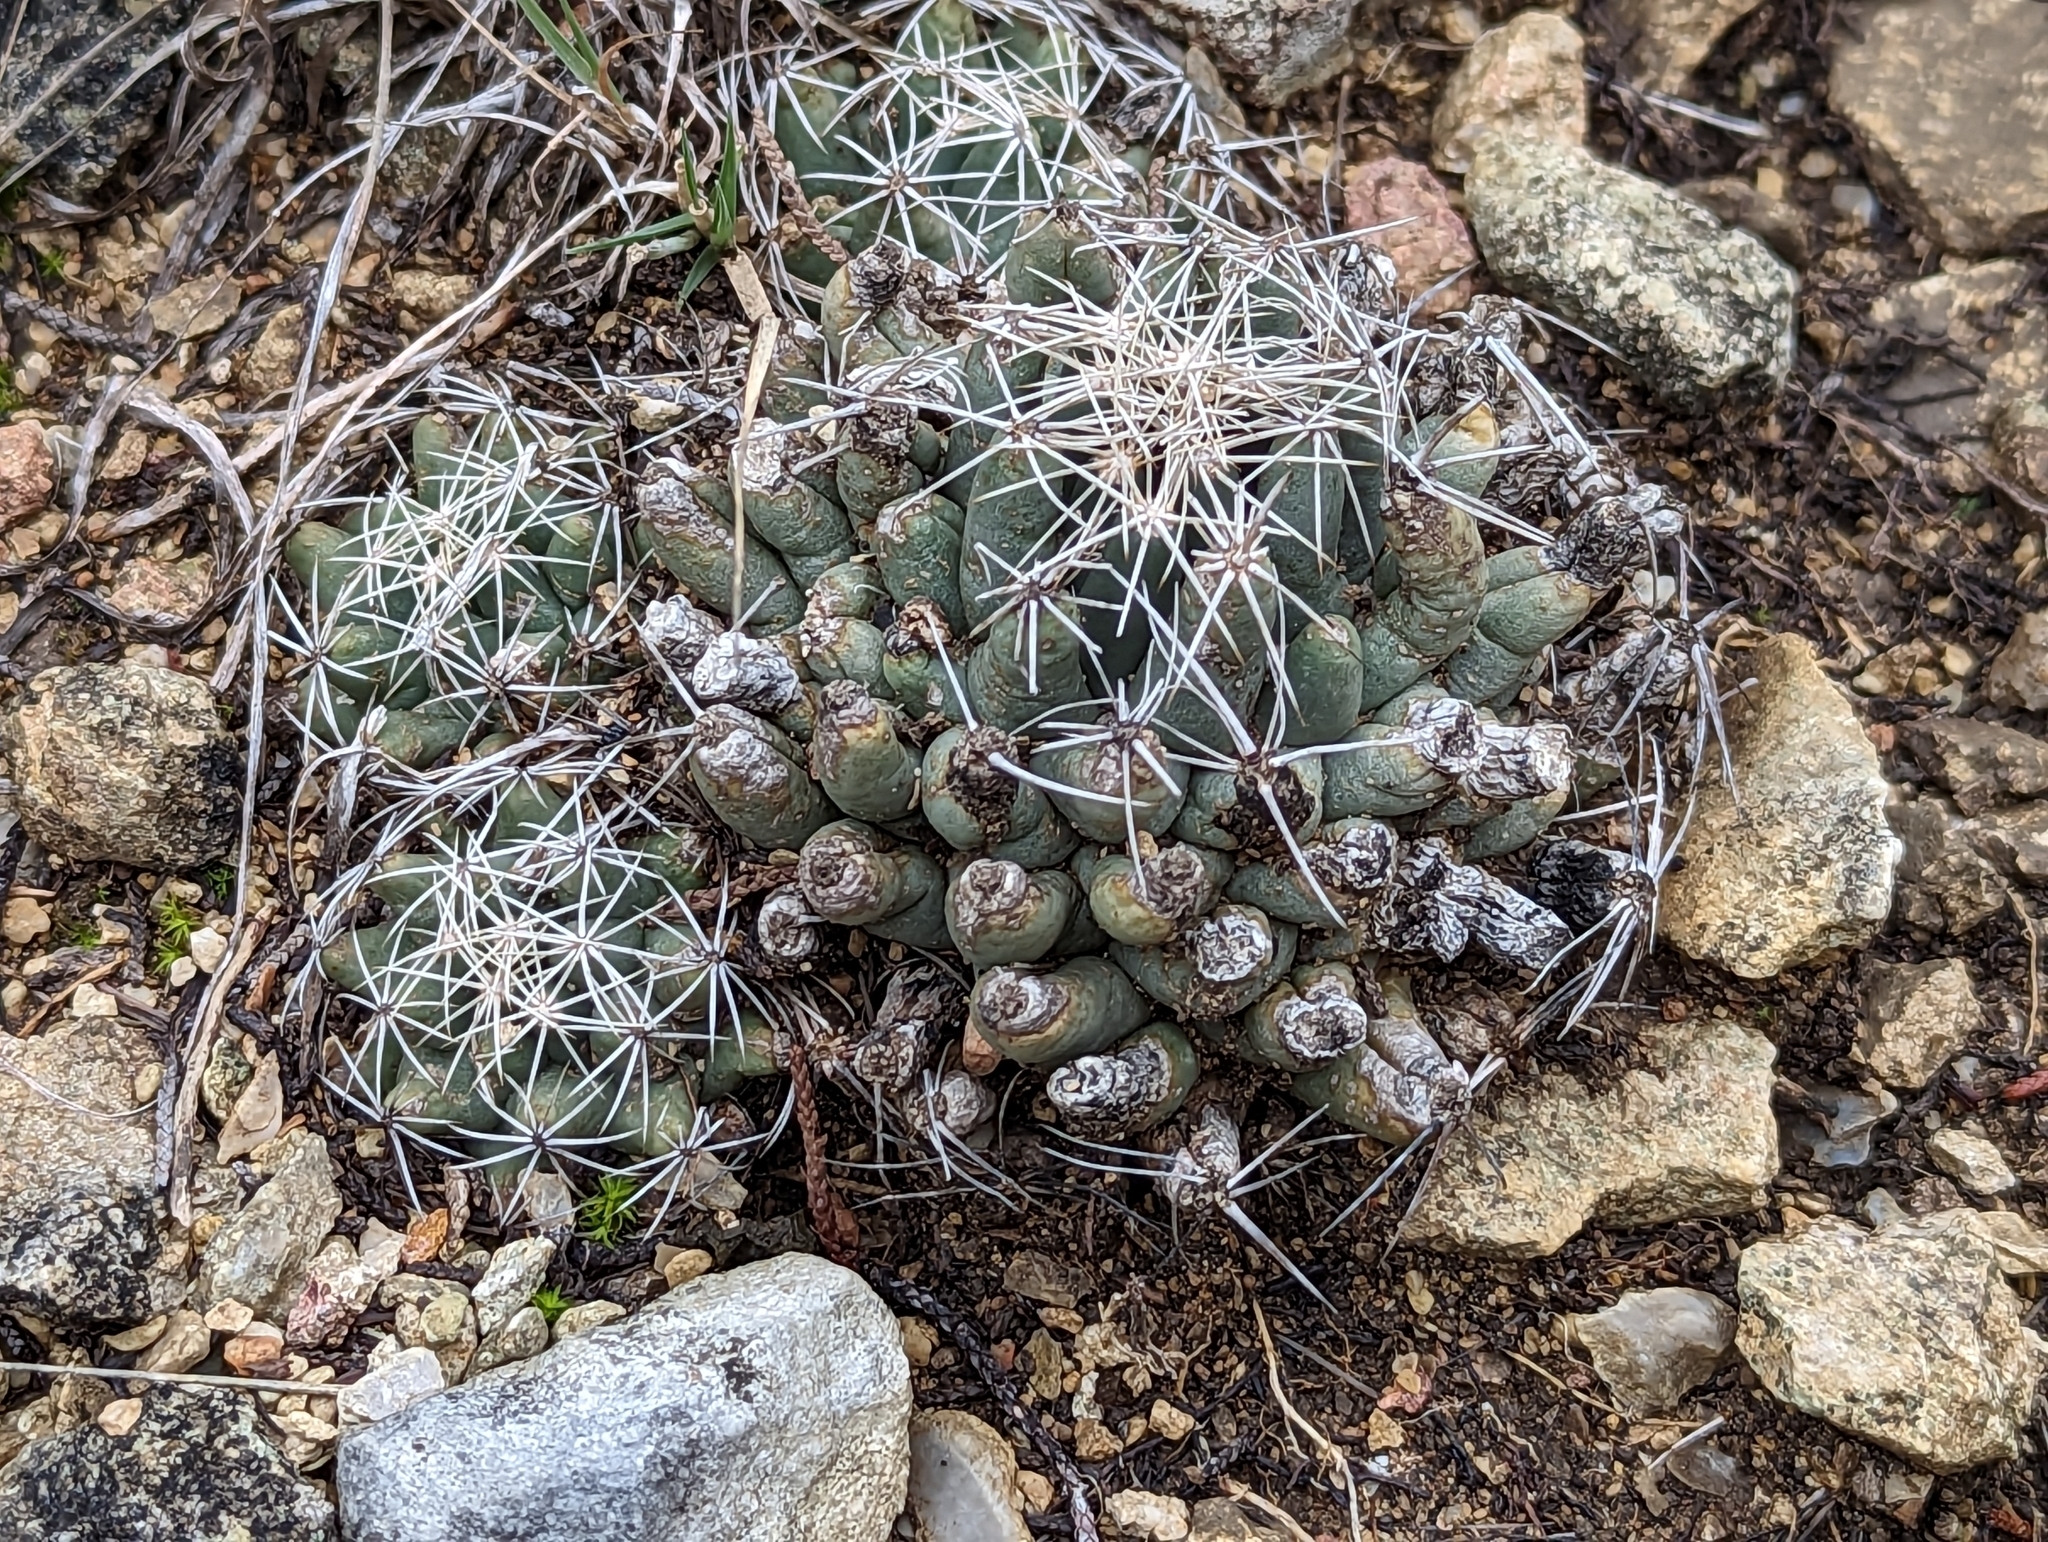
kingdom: Plantae
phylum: Tracheophyta
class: Magnoliopsida
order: Caryophyllales
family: Cactaceae
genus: Coryphantha
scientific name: Coryphantha sulcata
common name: Finger cactus
